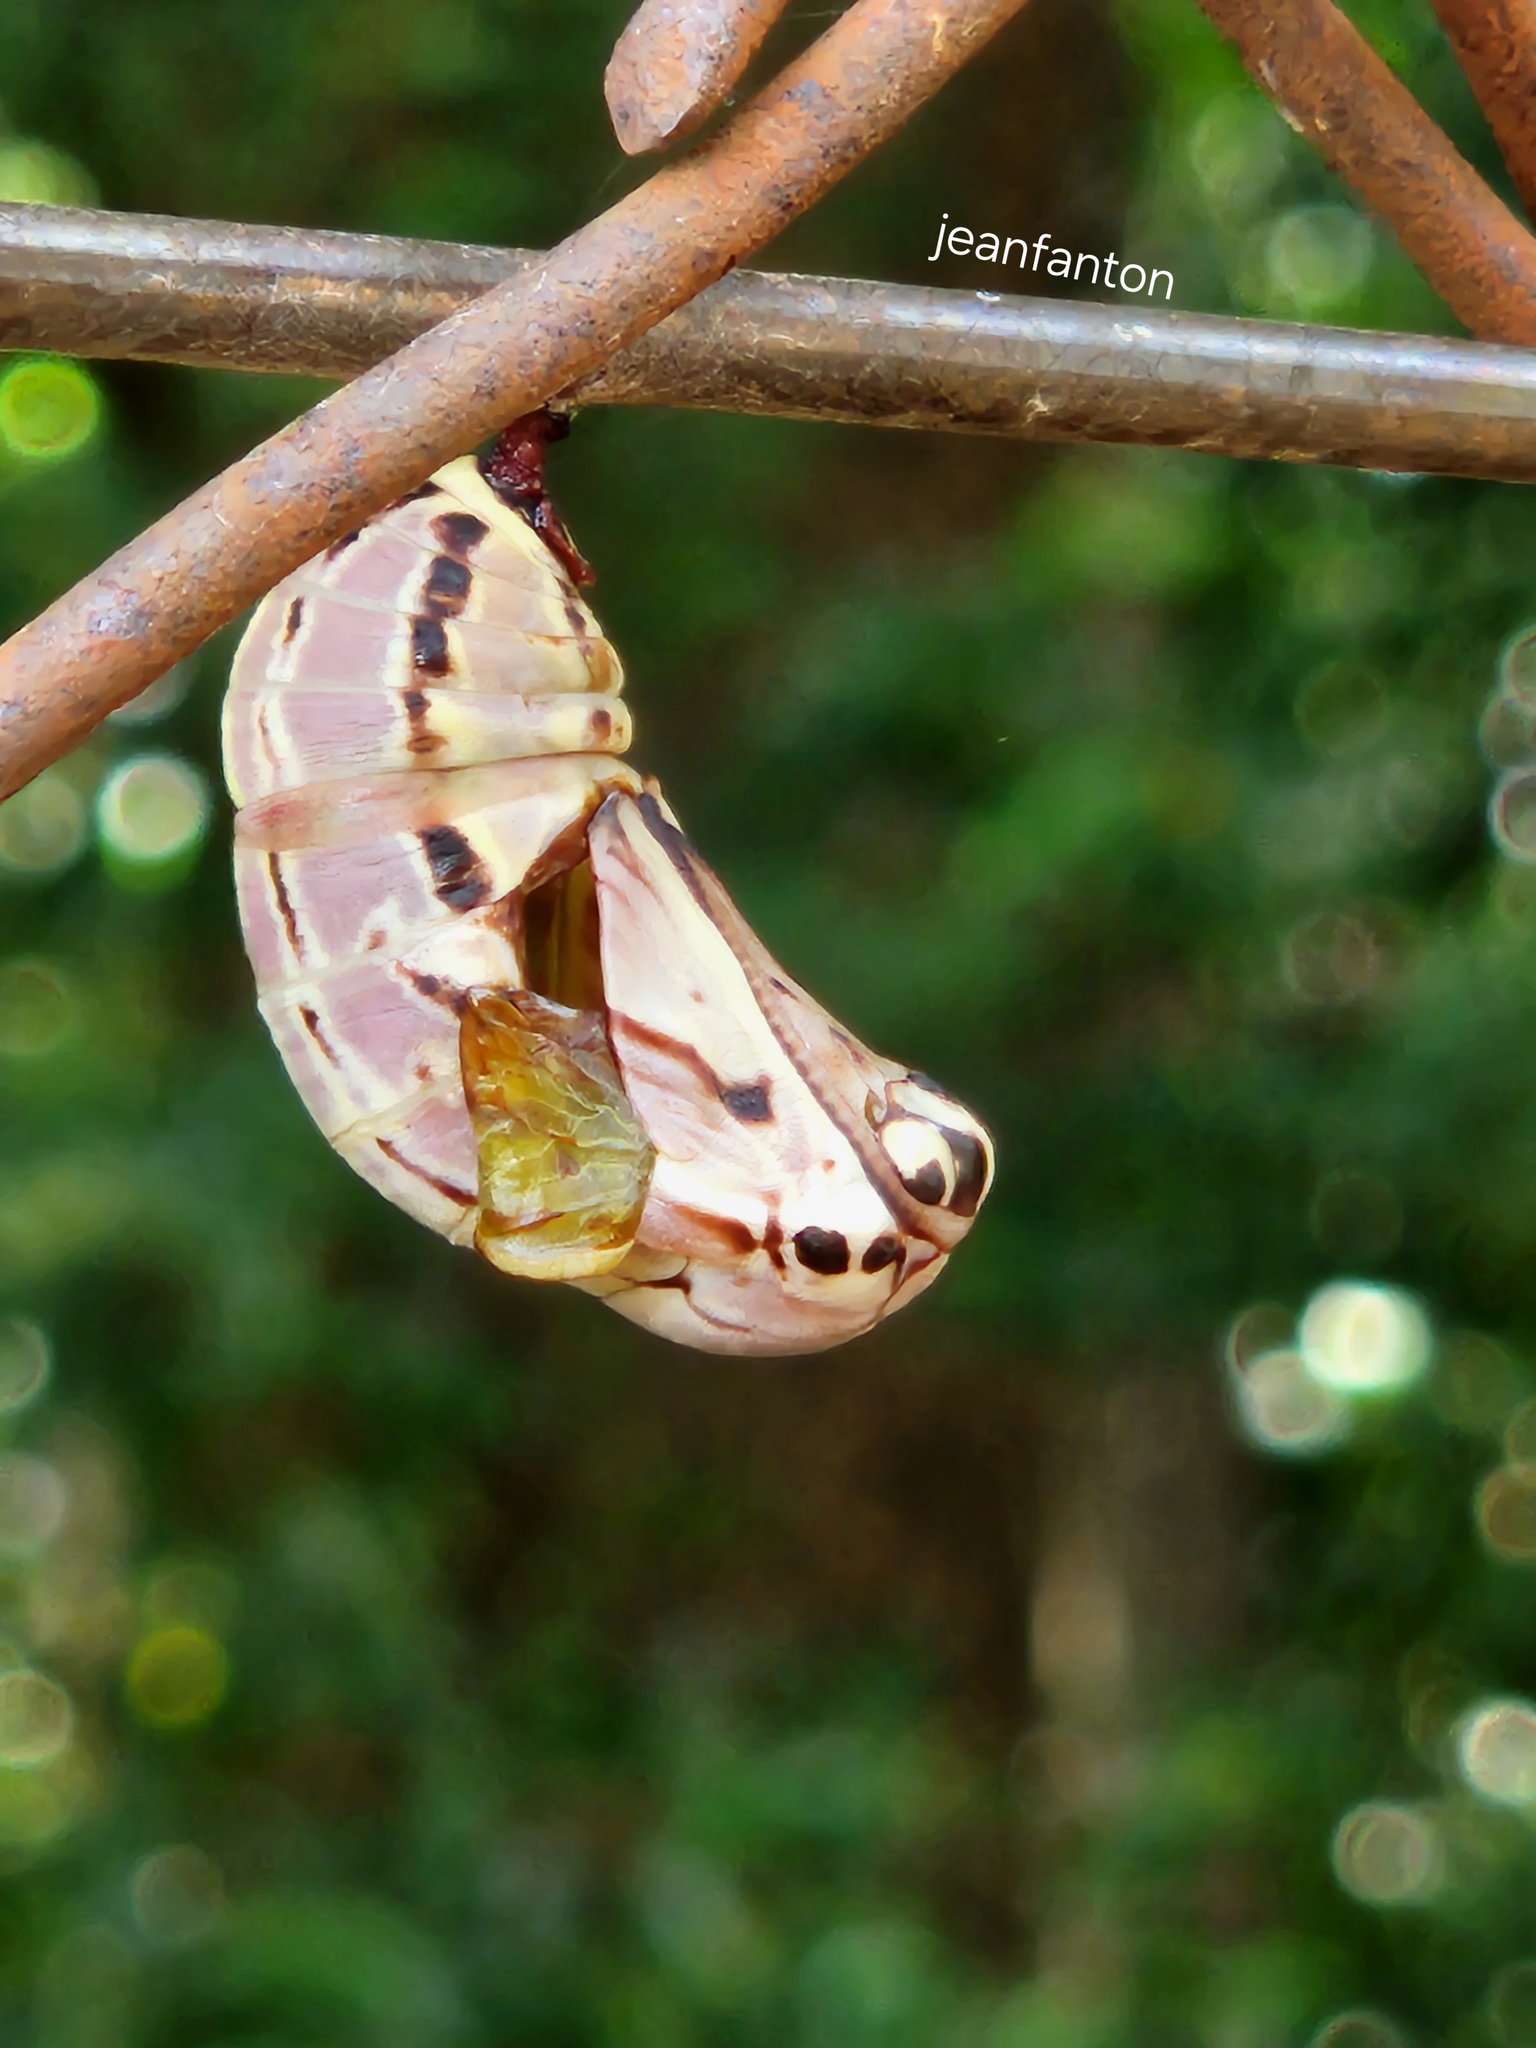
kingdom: Animalia
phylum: Arthropoda
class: Insecta
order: Lepidoptera
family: Nymphalidae
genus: Brassolis
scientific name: Brassolis sophorae
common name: Coconut caterpillar
